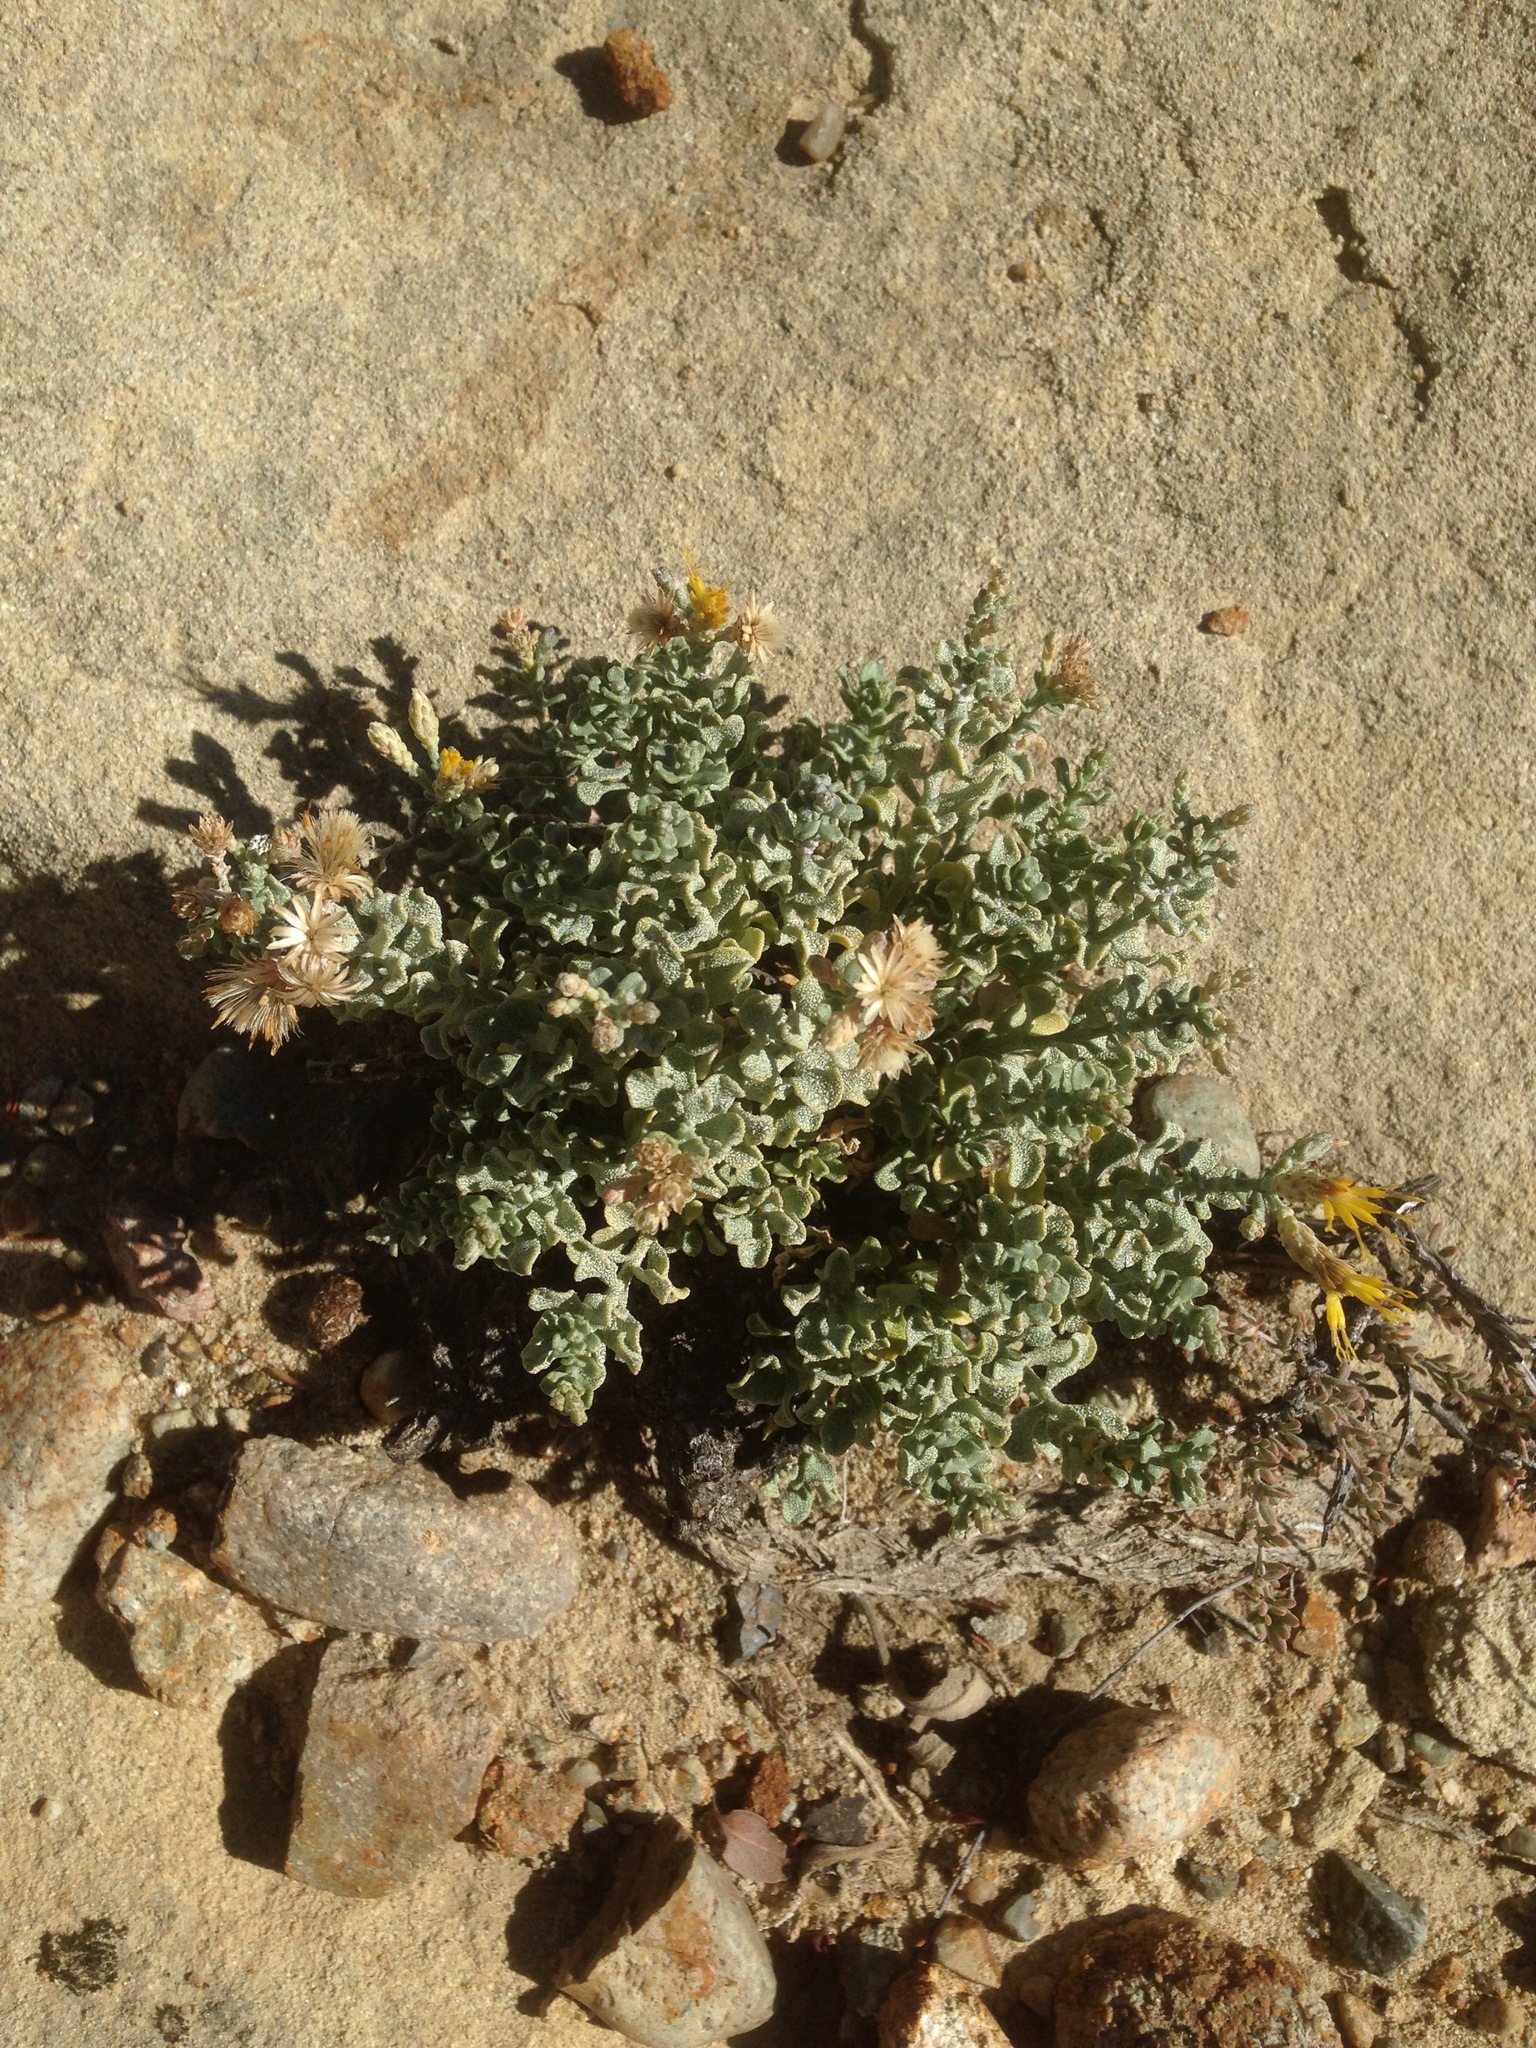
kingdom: Plantae
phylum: Tracheophyta
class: Magnoliopsida
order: Asterales
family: Asteraceae
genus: Ericameria
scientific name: Ericameria cuneata
